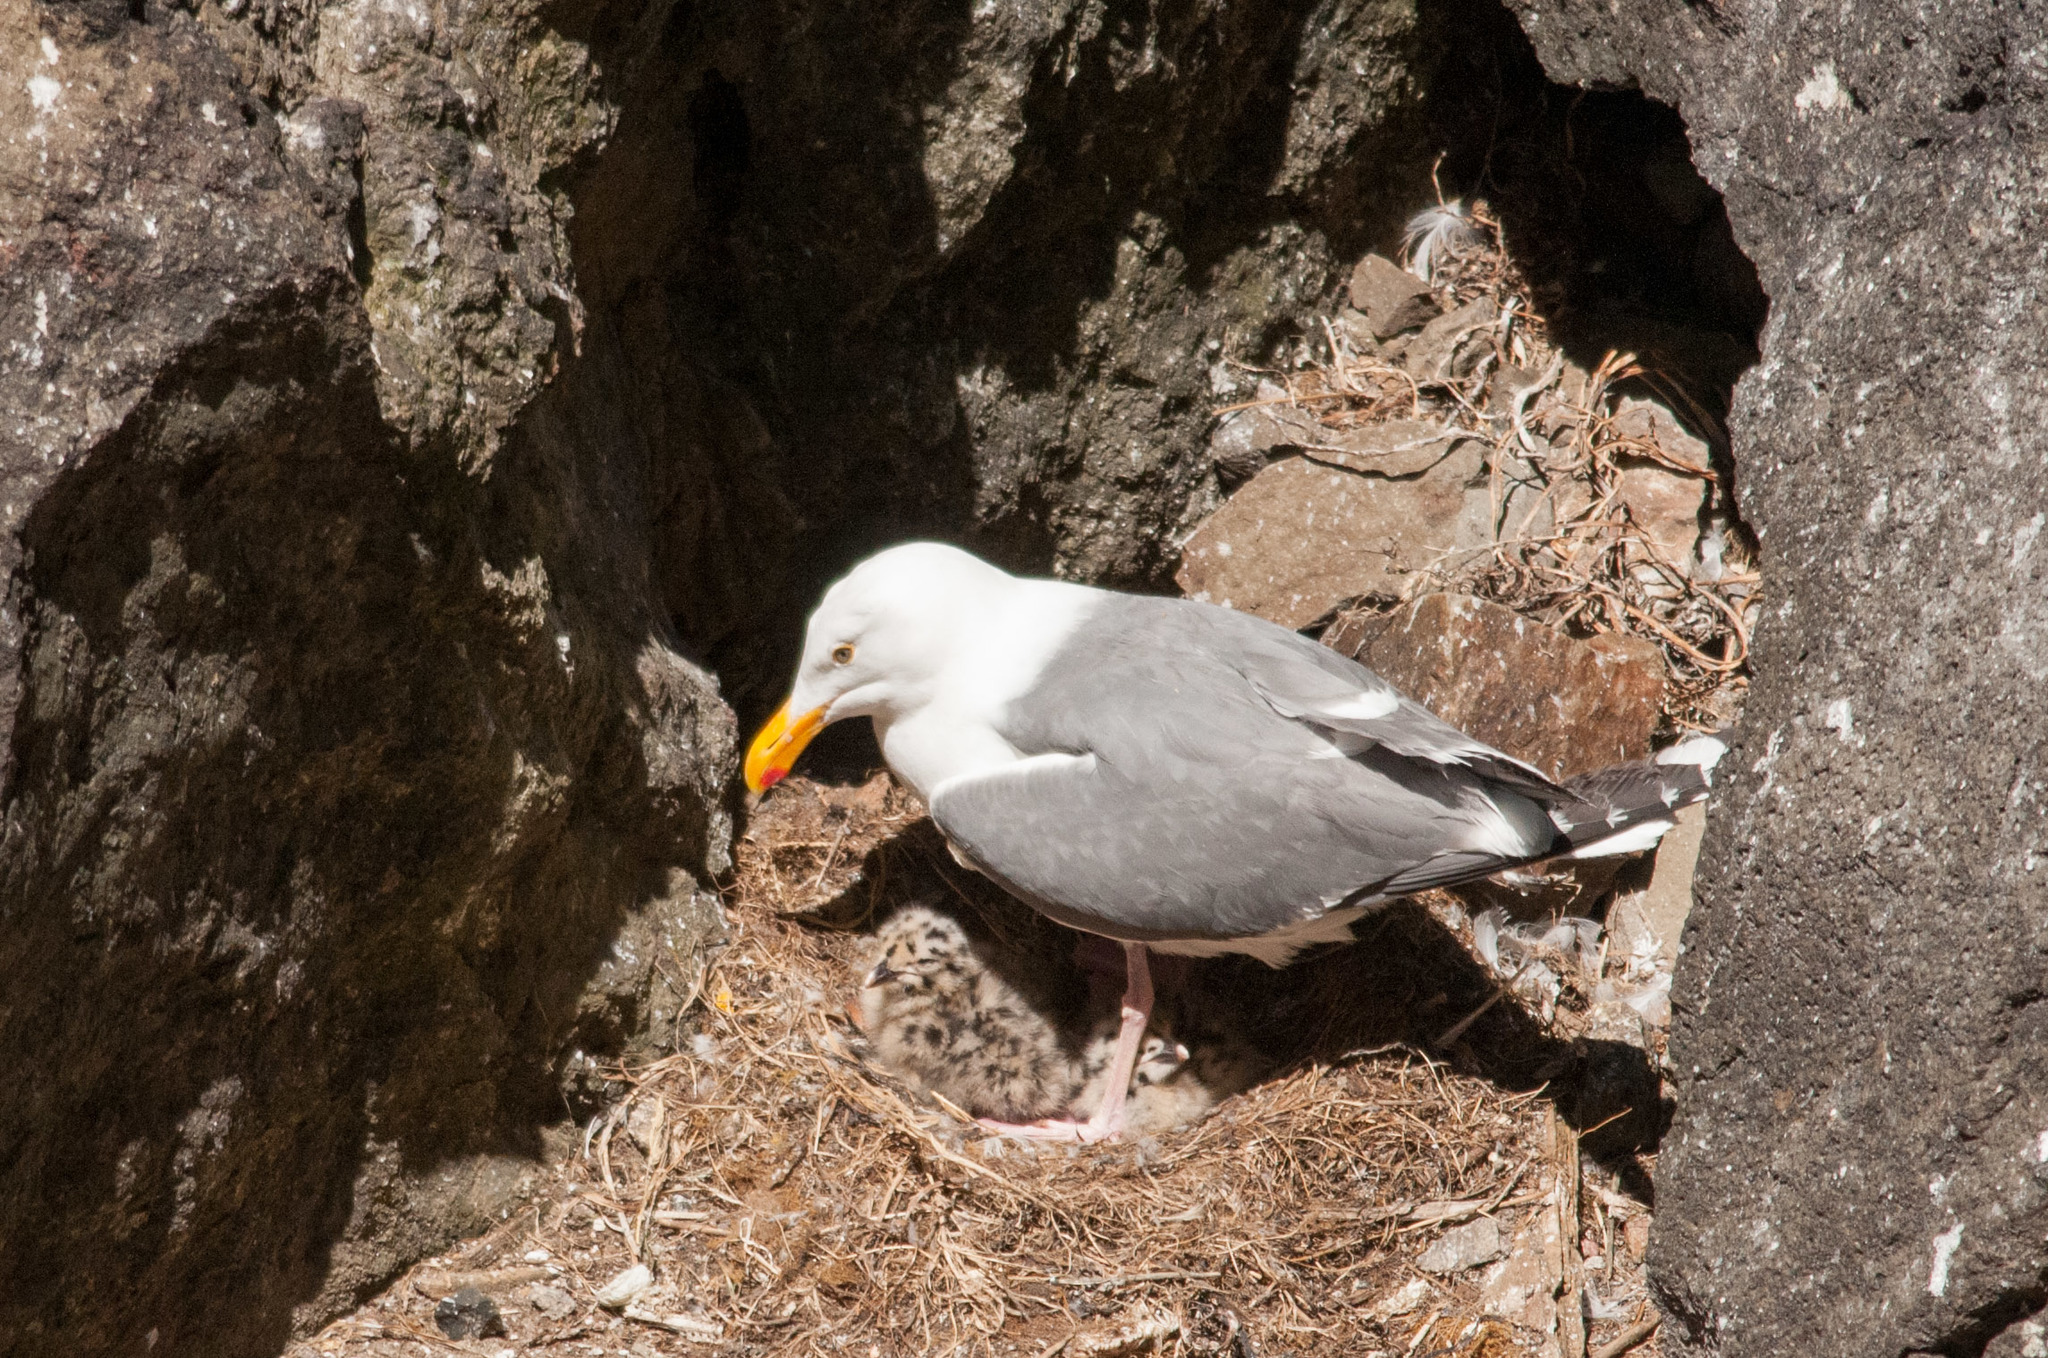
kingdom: Animalia
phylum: Chordata
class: Aves
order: Charadriiformes
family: Laridae
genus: Larus
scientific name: Larus occidentalis
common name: Western gull
